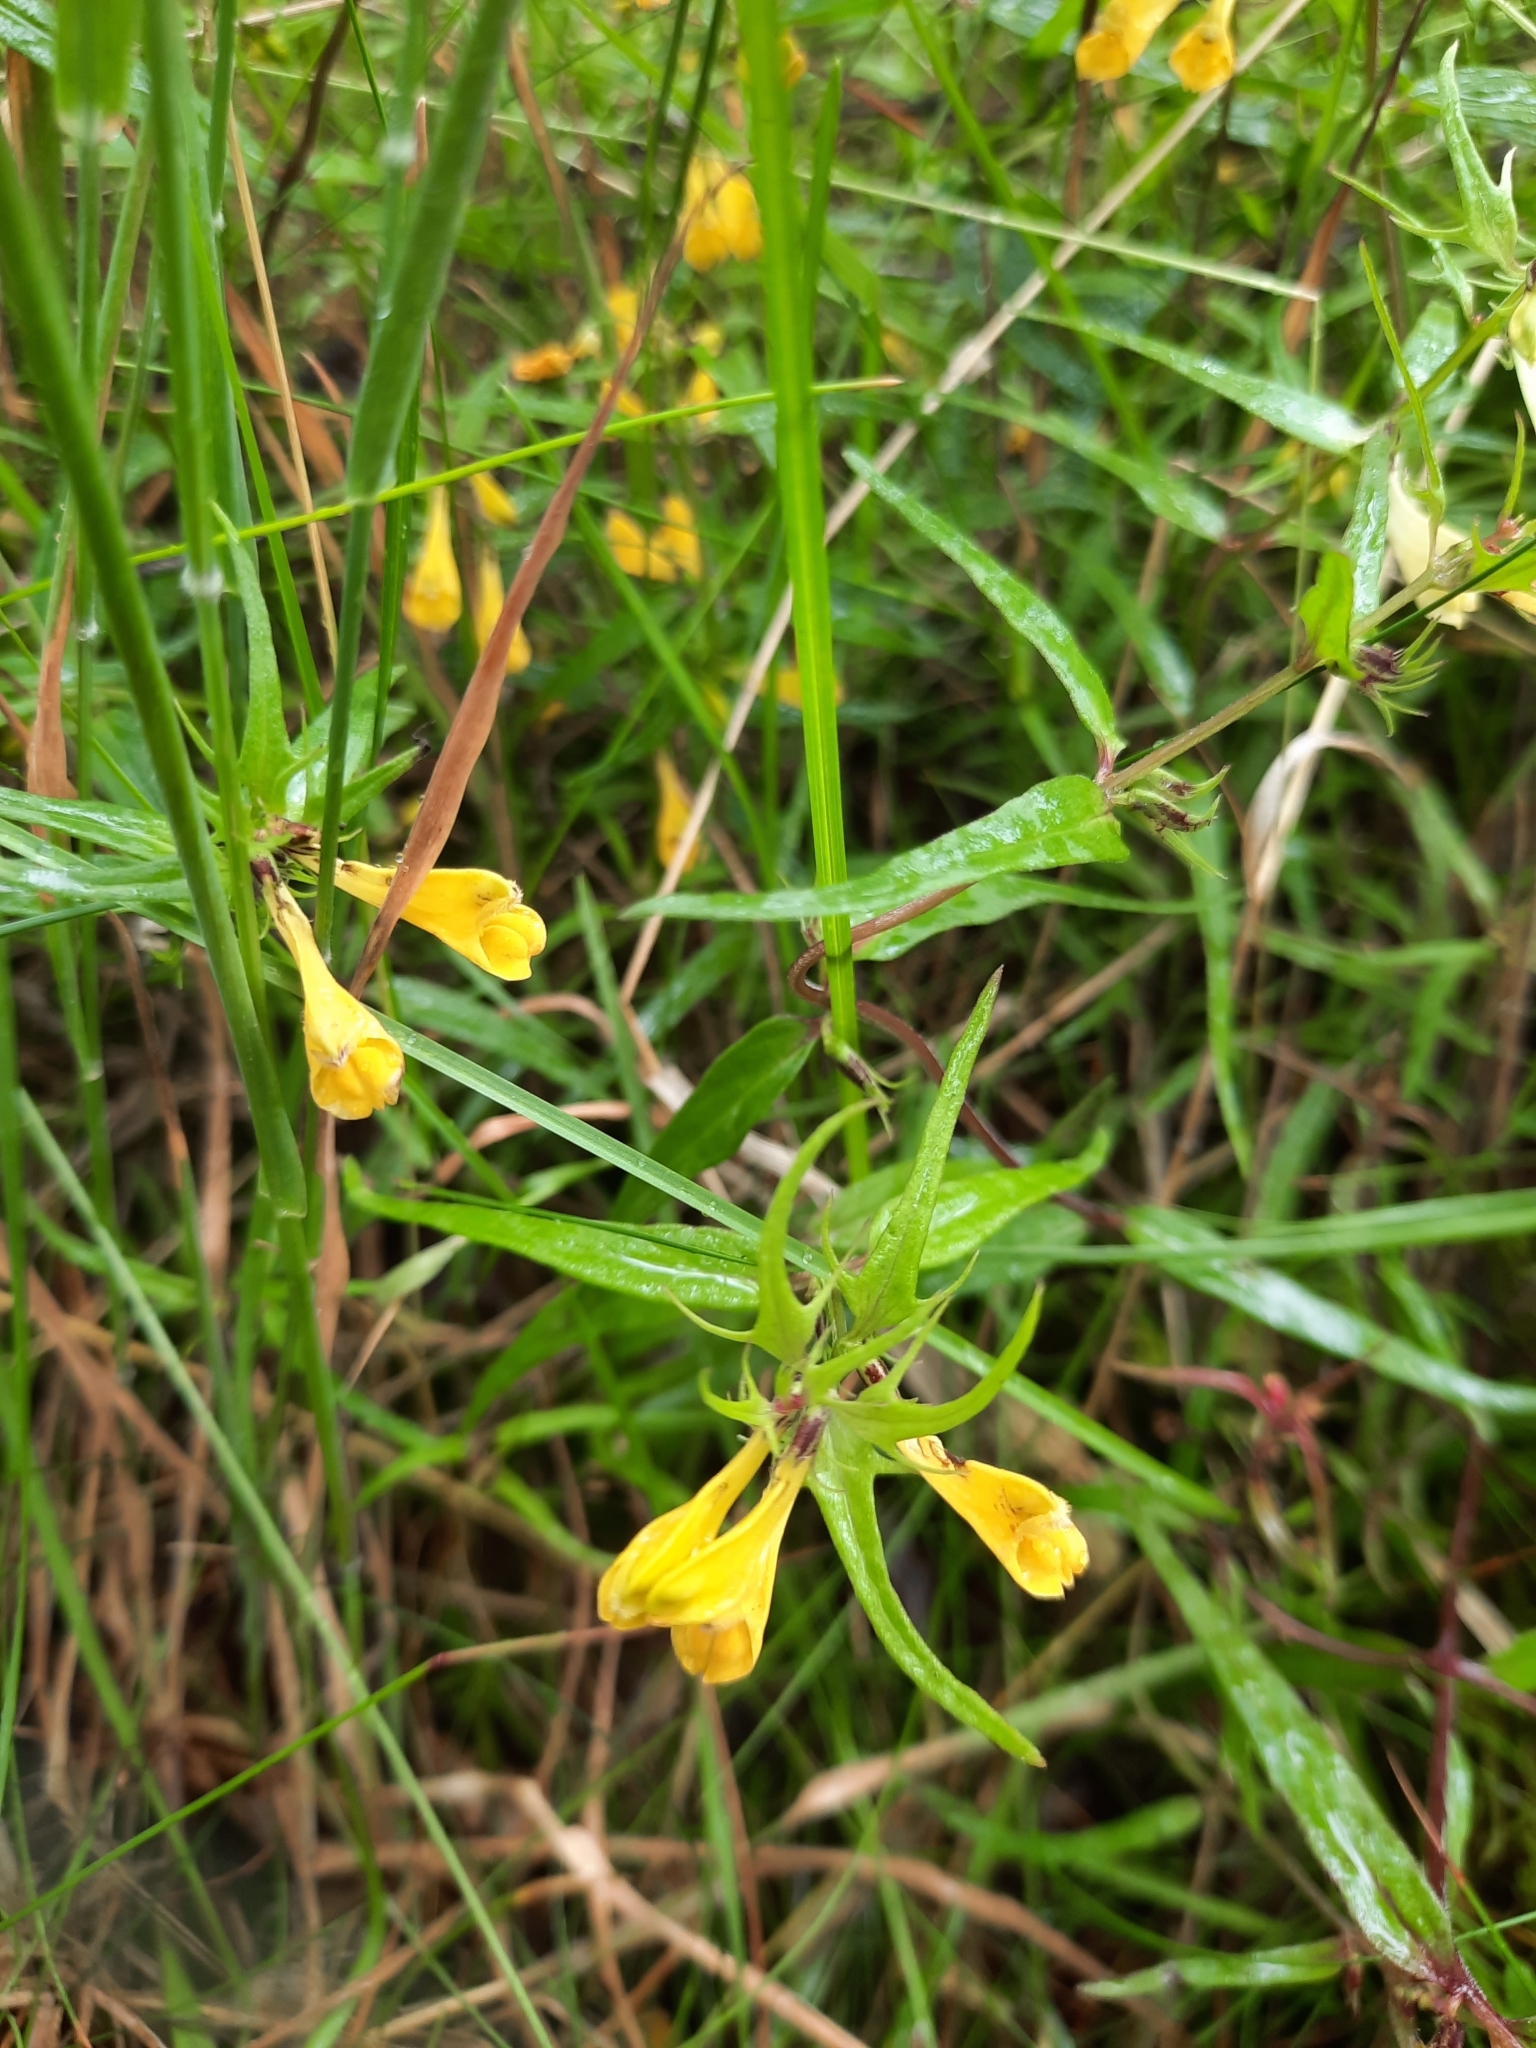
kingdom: Plantae
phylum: Tracheophyta
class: Magnoliopsida
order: Lamiales
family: Orobanchaceae
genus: Melampyrum
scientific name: Melampyrum pratense
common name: Common cow-wheat
